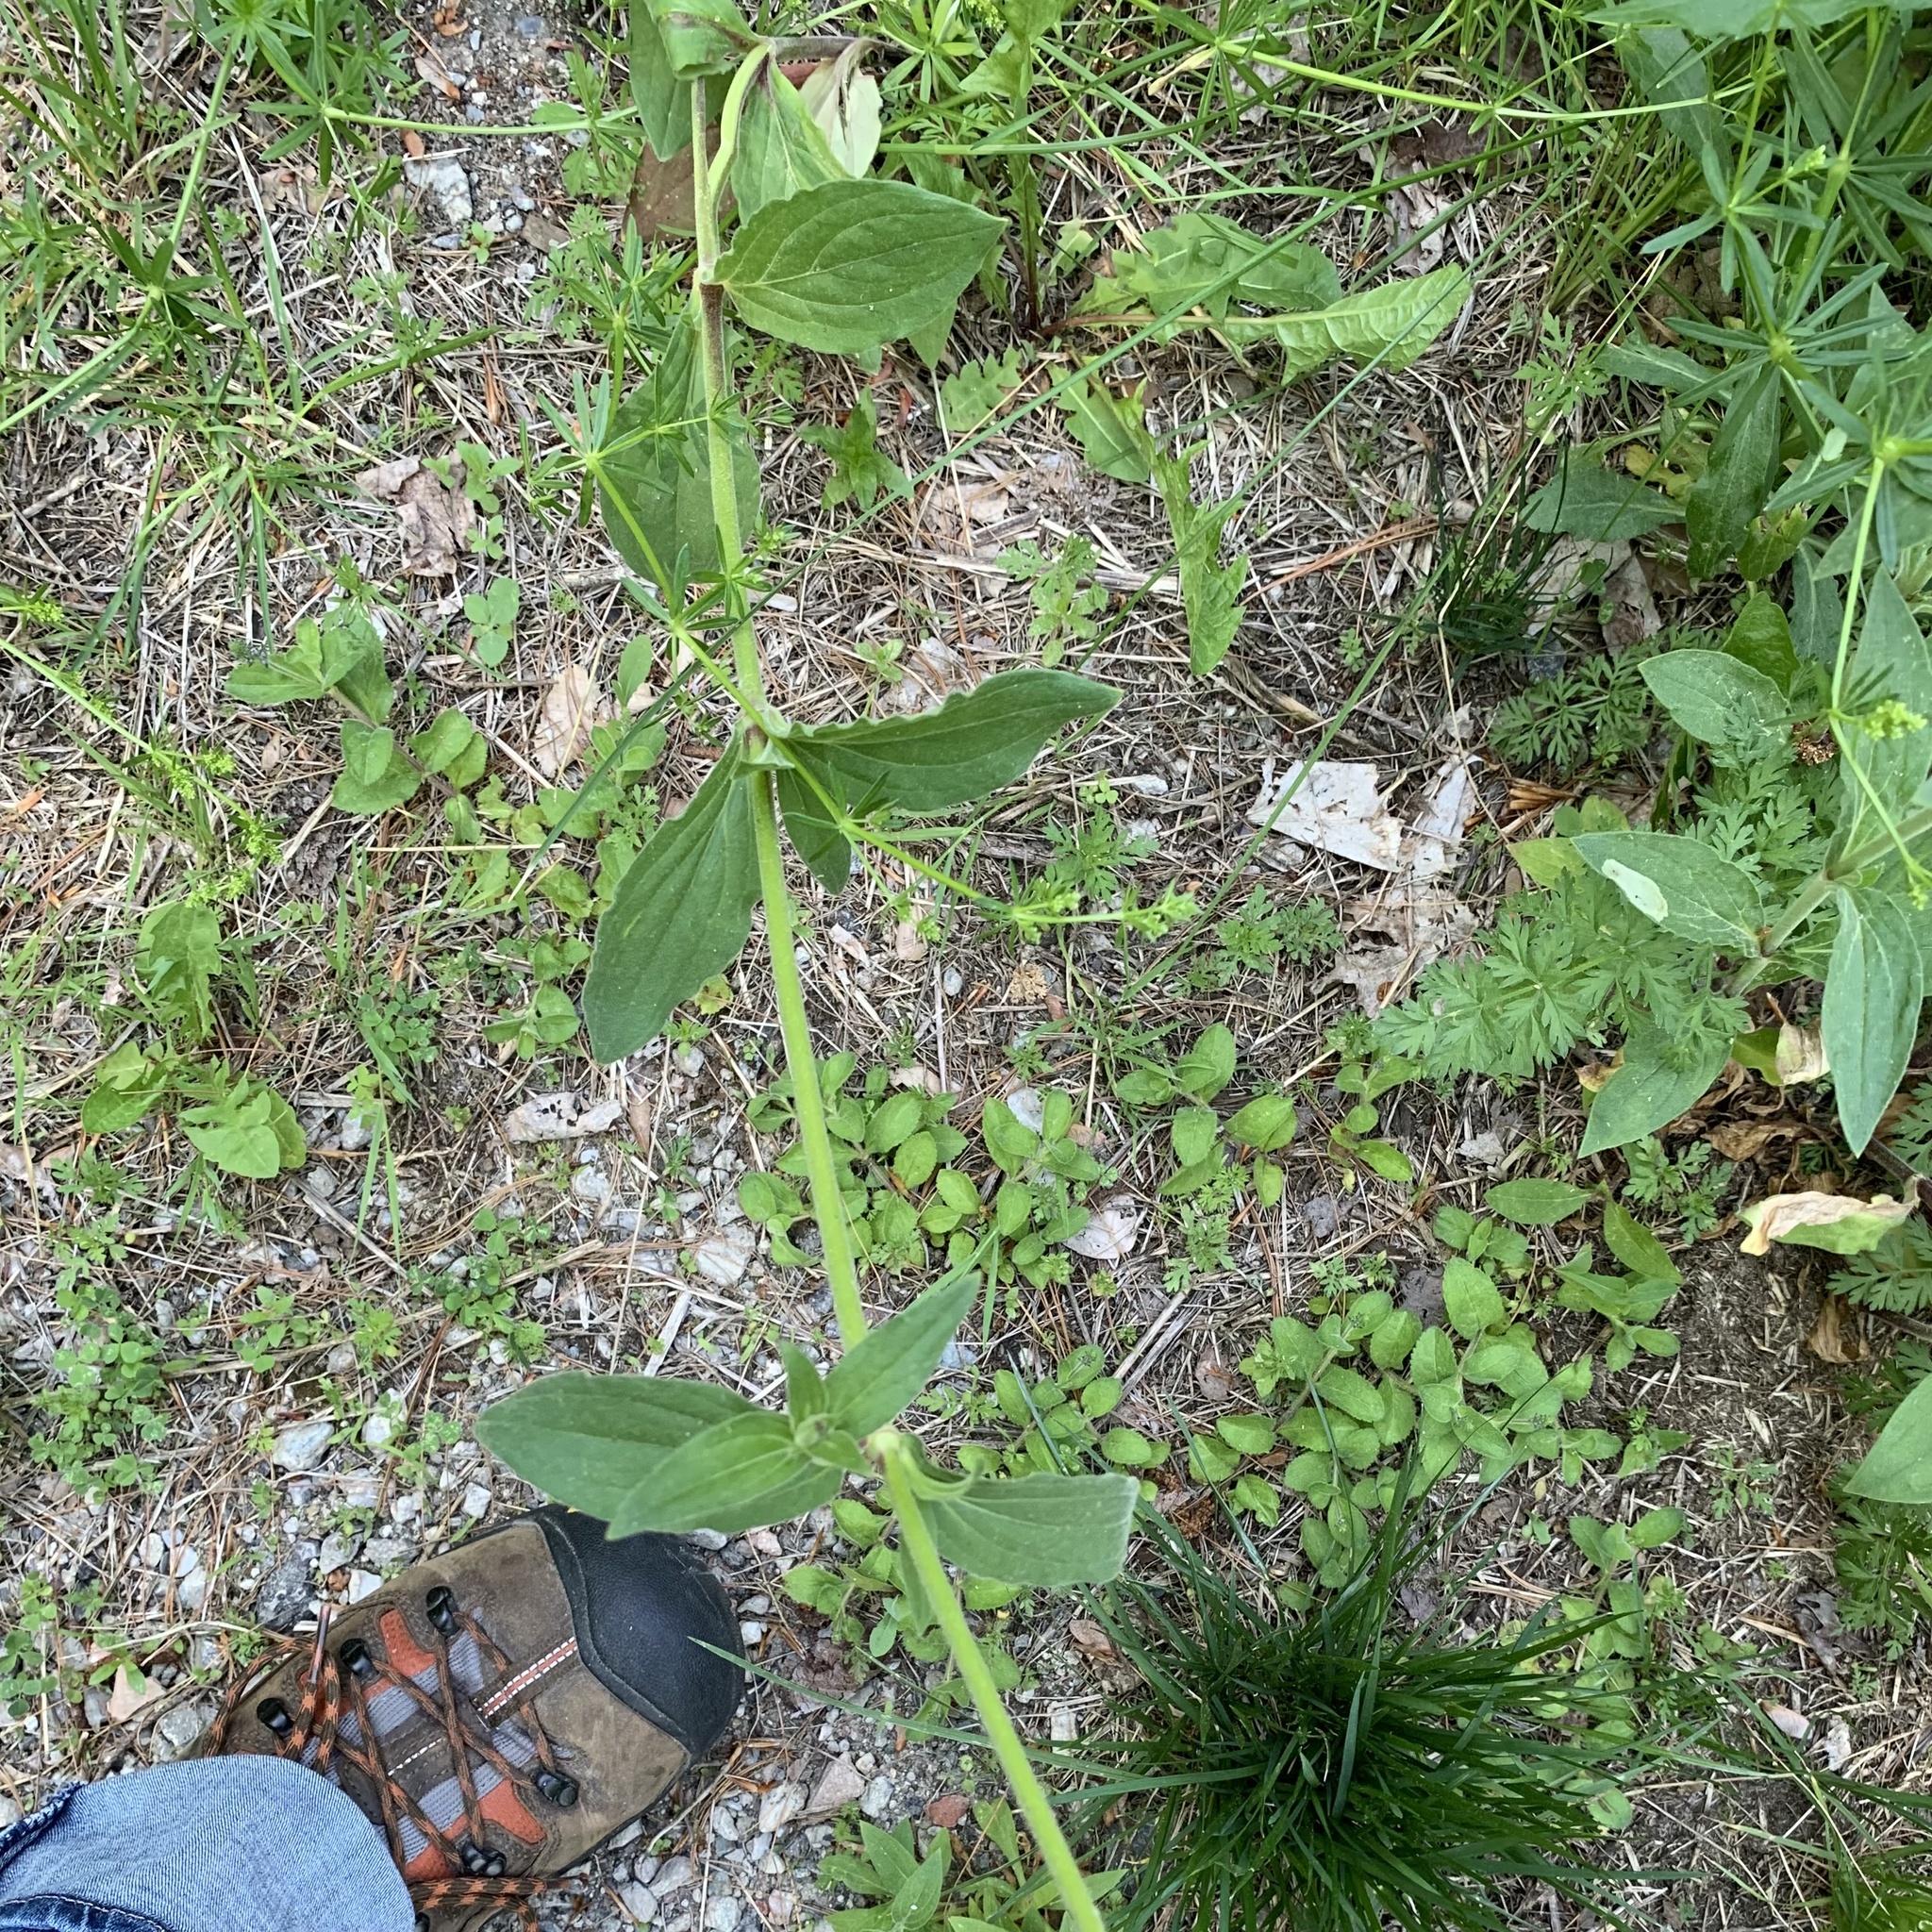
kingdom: Plantae
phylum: Tracheophyta
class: Magnoliopsida
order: Caryophyllales
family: Caryophyllaceae
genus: Silene
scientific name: Silene latifolia
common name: White campion
